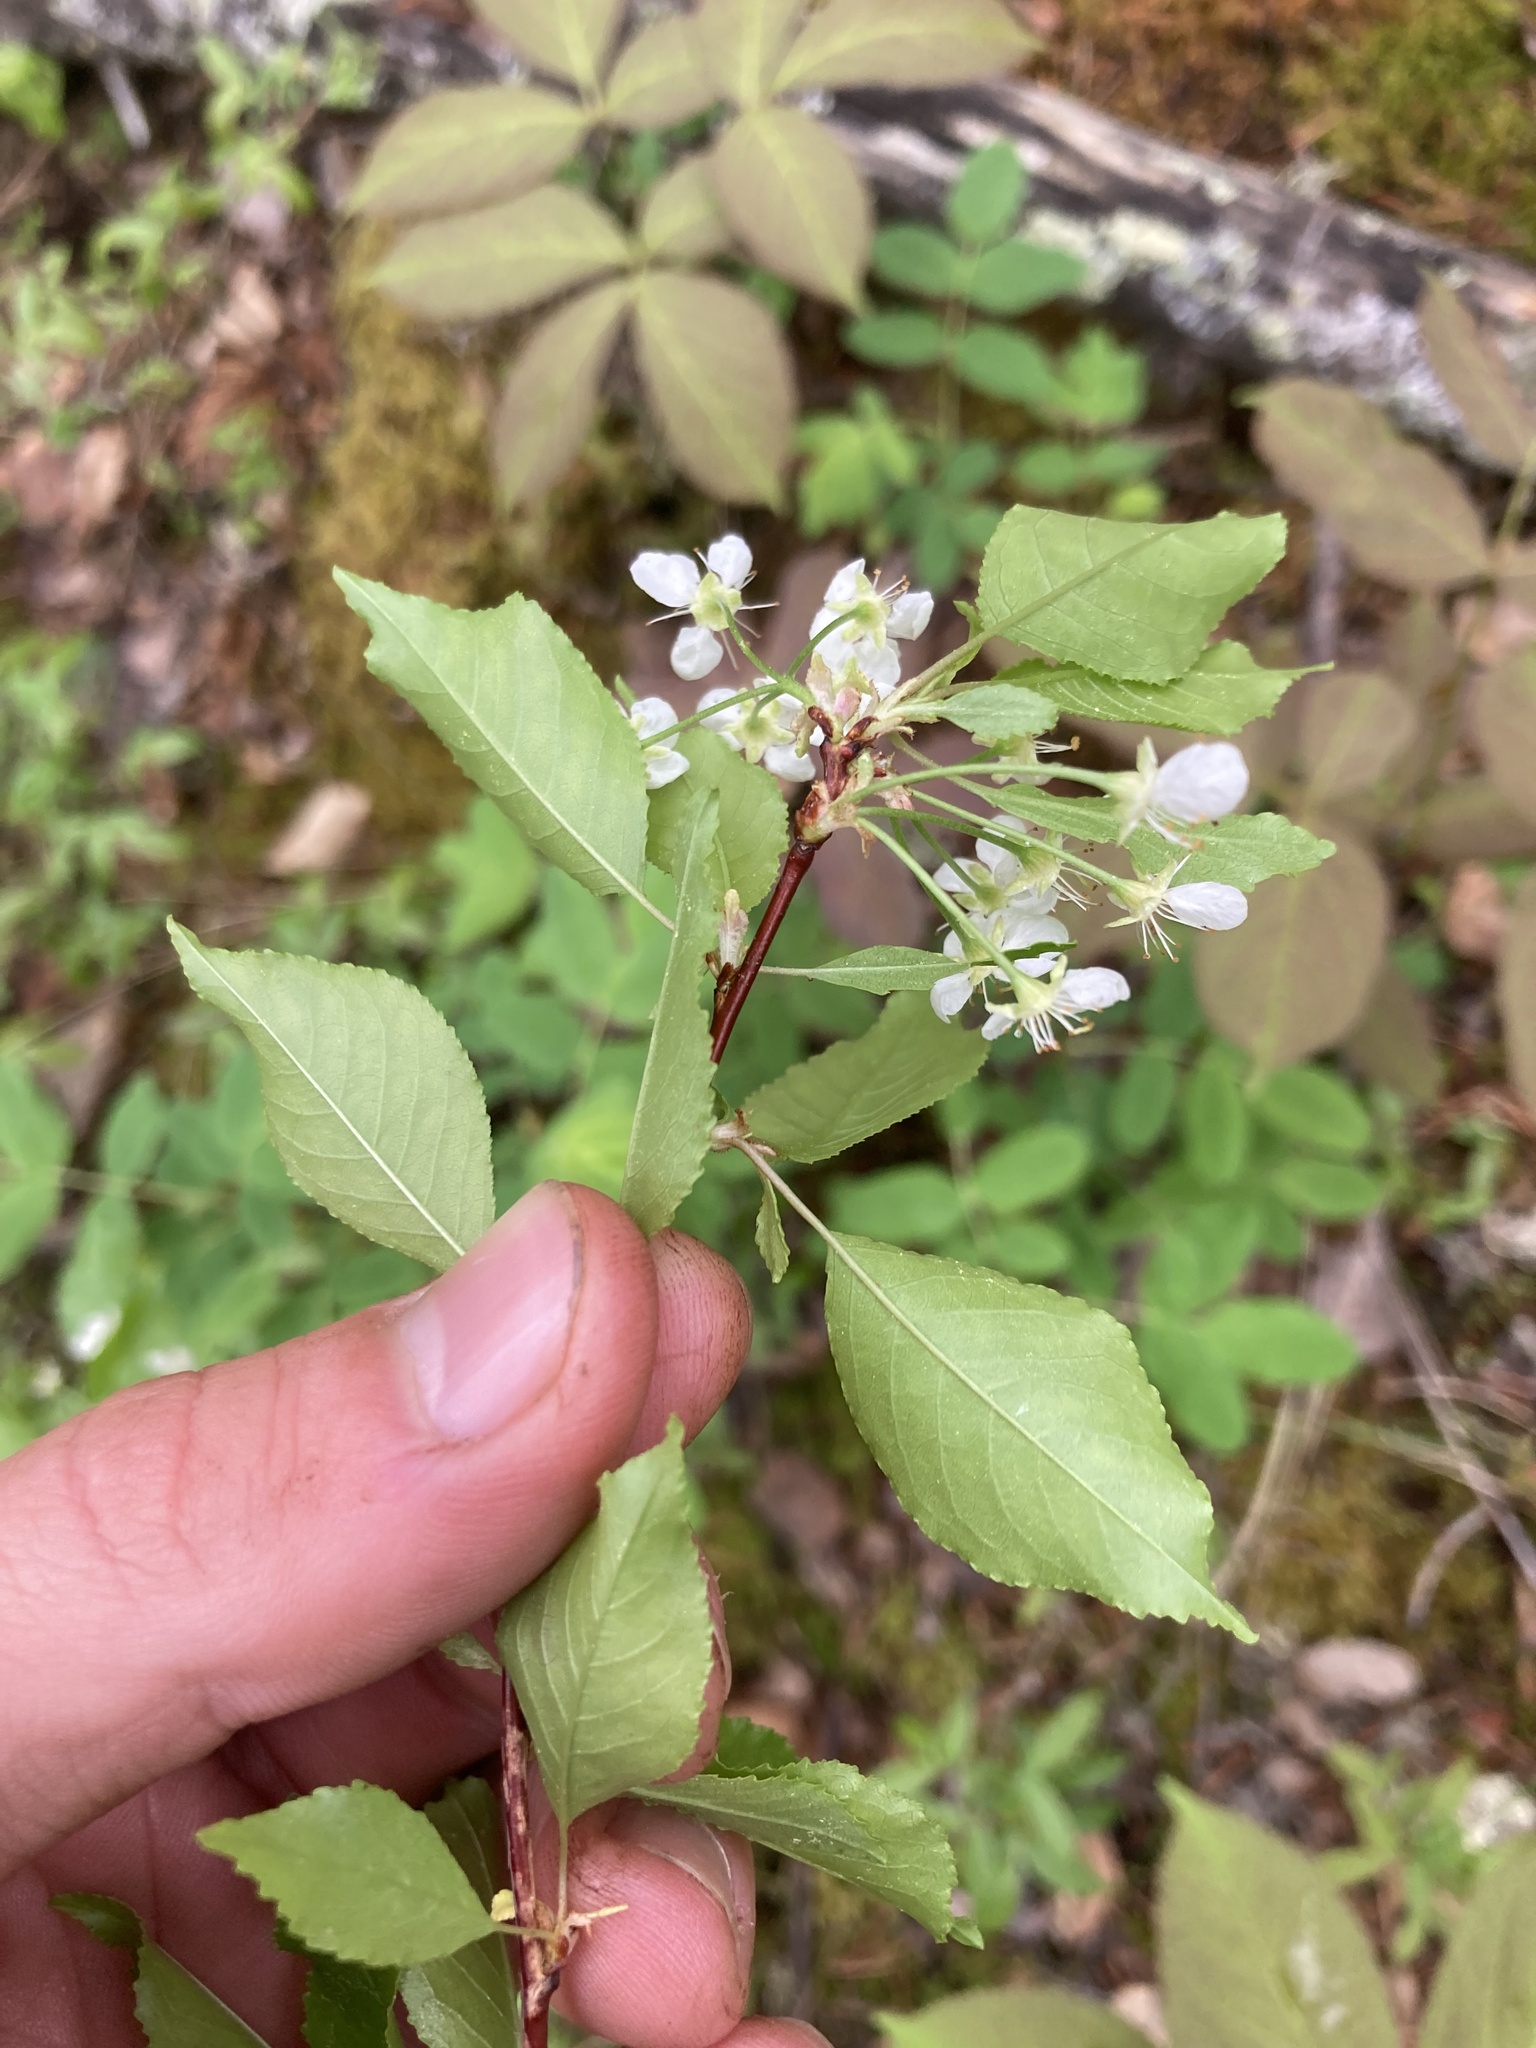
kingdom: Plantae
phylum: Tracheophyta
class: Magnoliopsida
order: Rosales
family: Rosaceae
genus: Prunus
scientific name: Prunus pensylvanica
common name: Pin cherry
